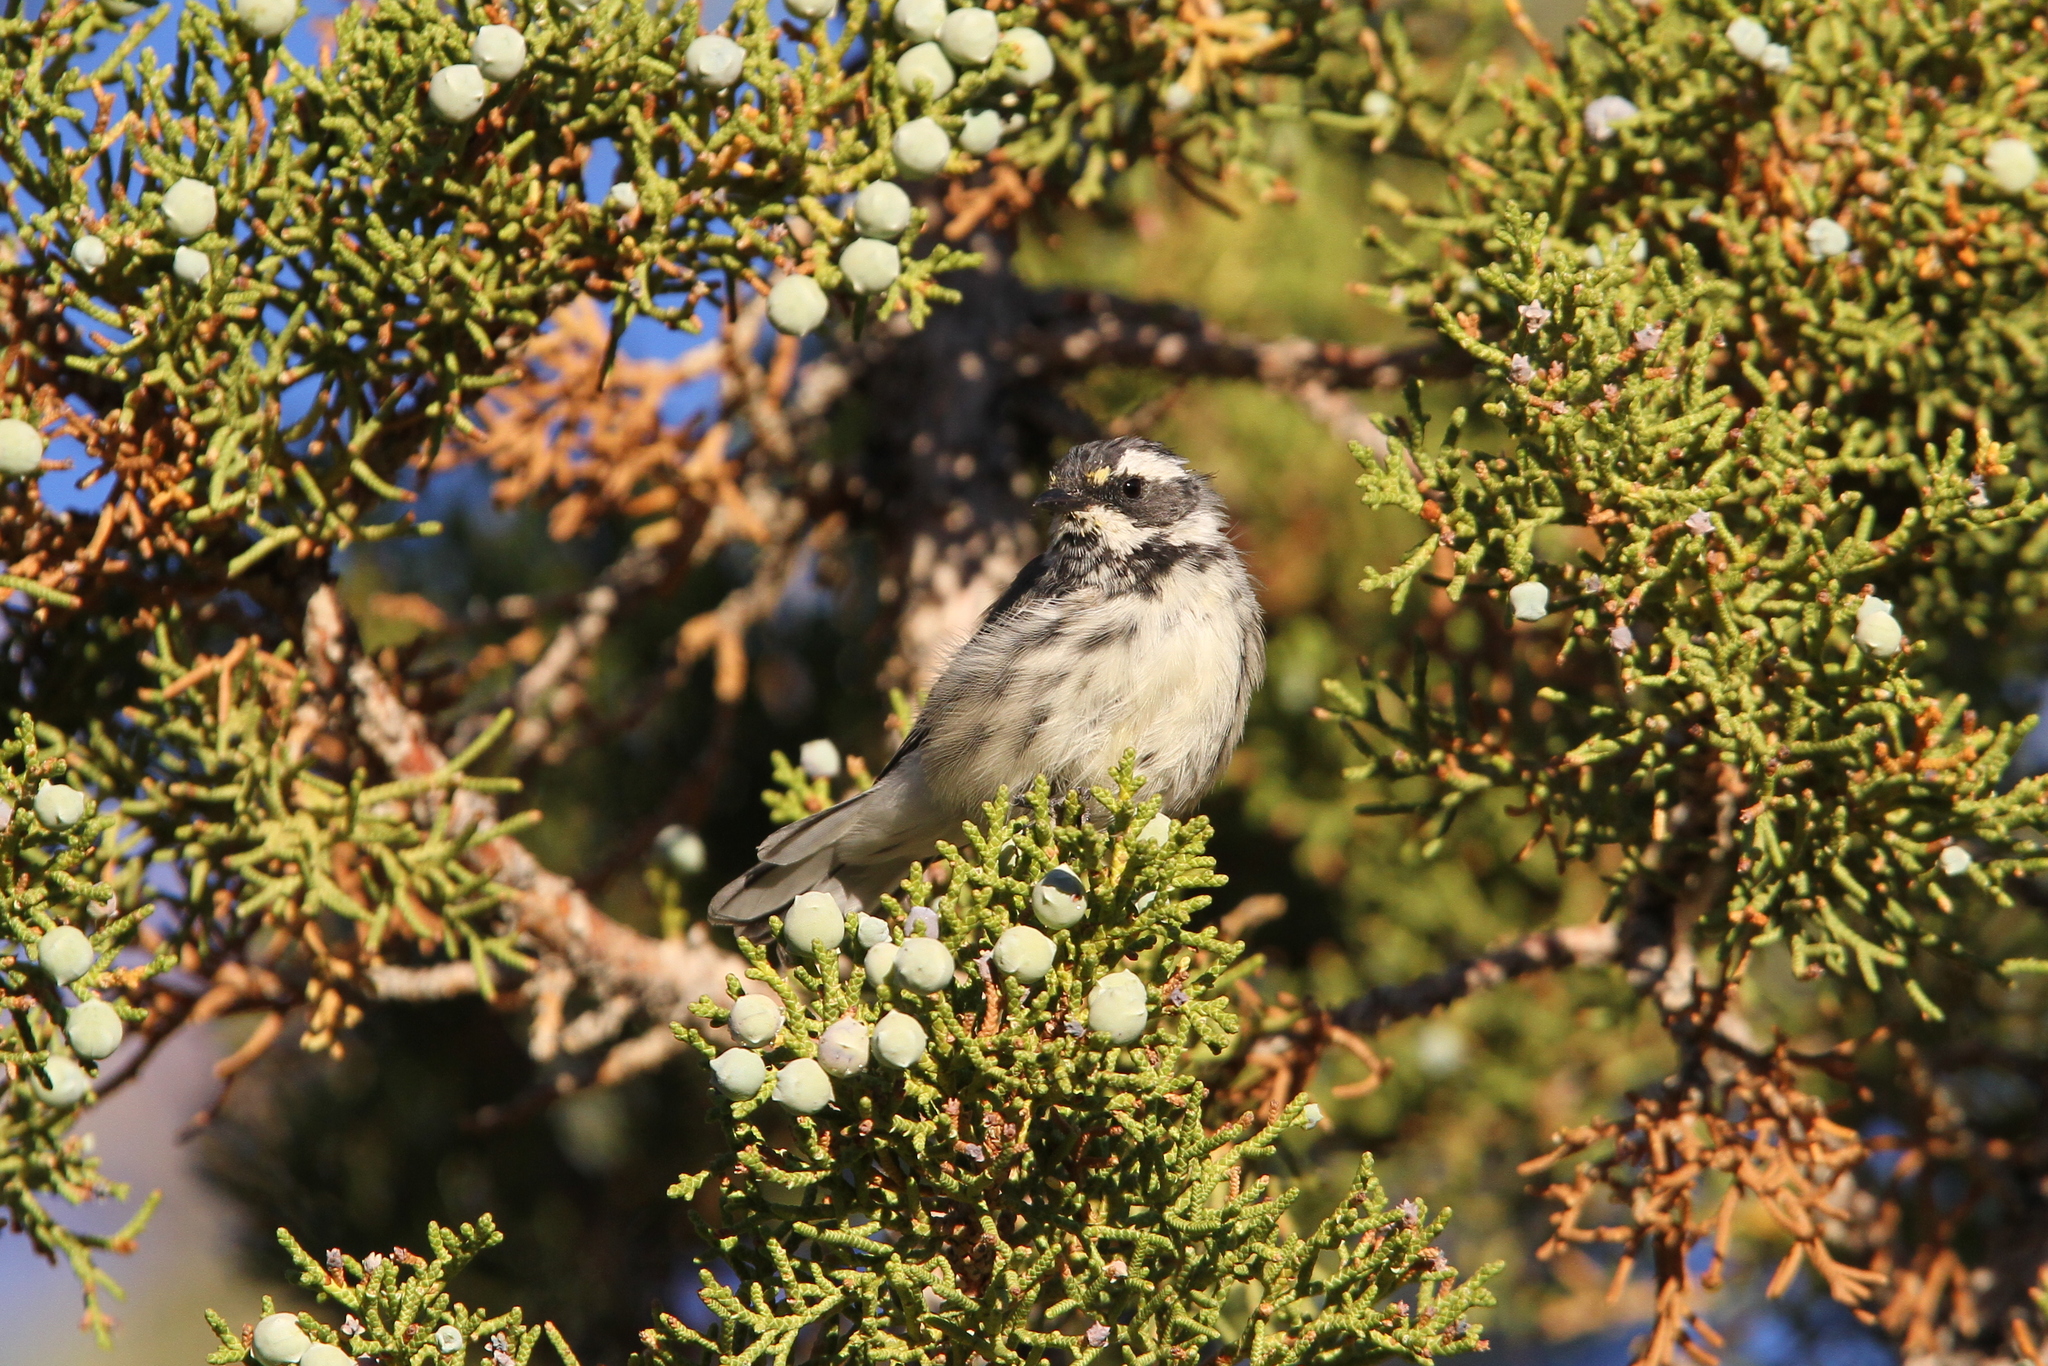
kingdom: Animalia
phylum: Chordata
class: Aves
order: Passeriformes
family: Parulidae
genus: Setophaga
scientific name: Setophaga nigrescens
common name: Black-throated gray warbler
